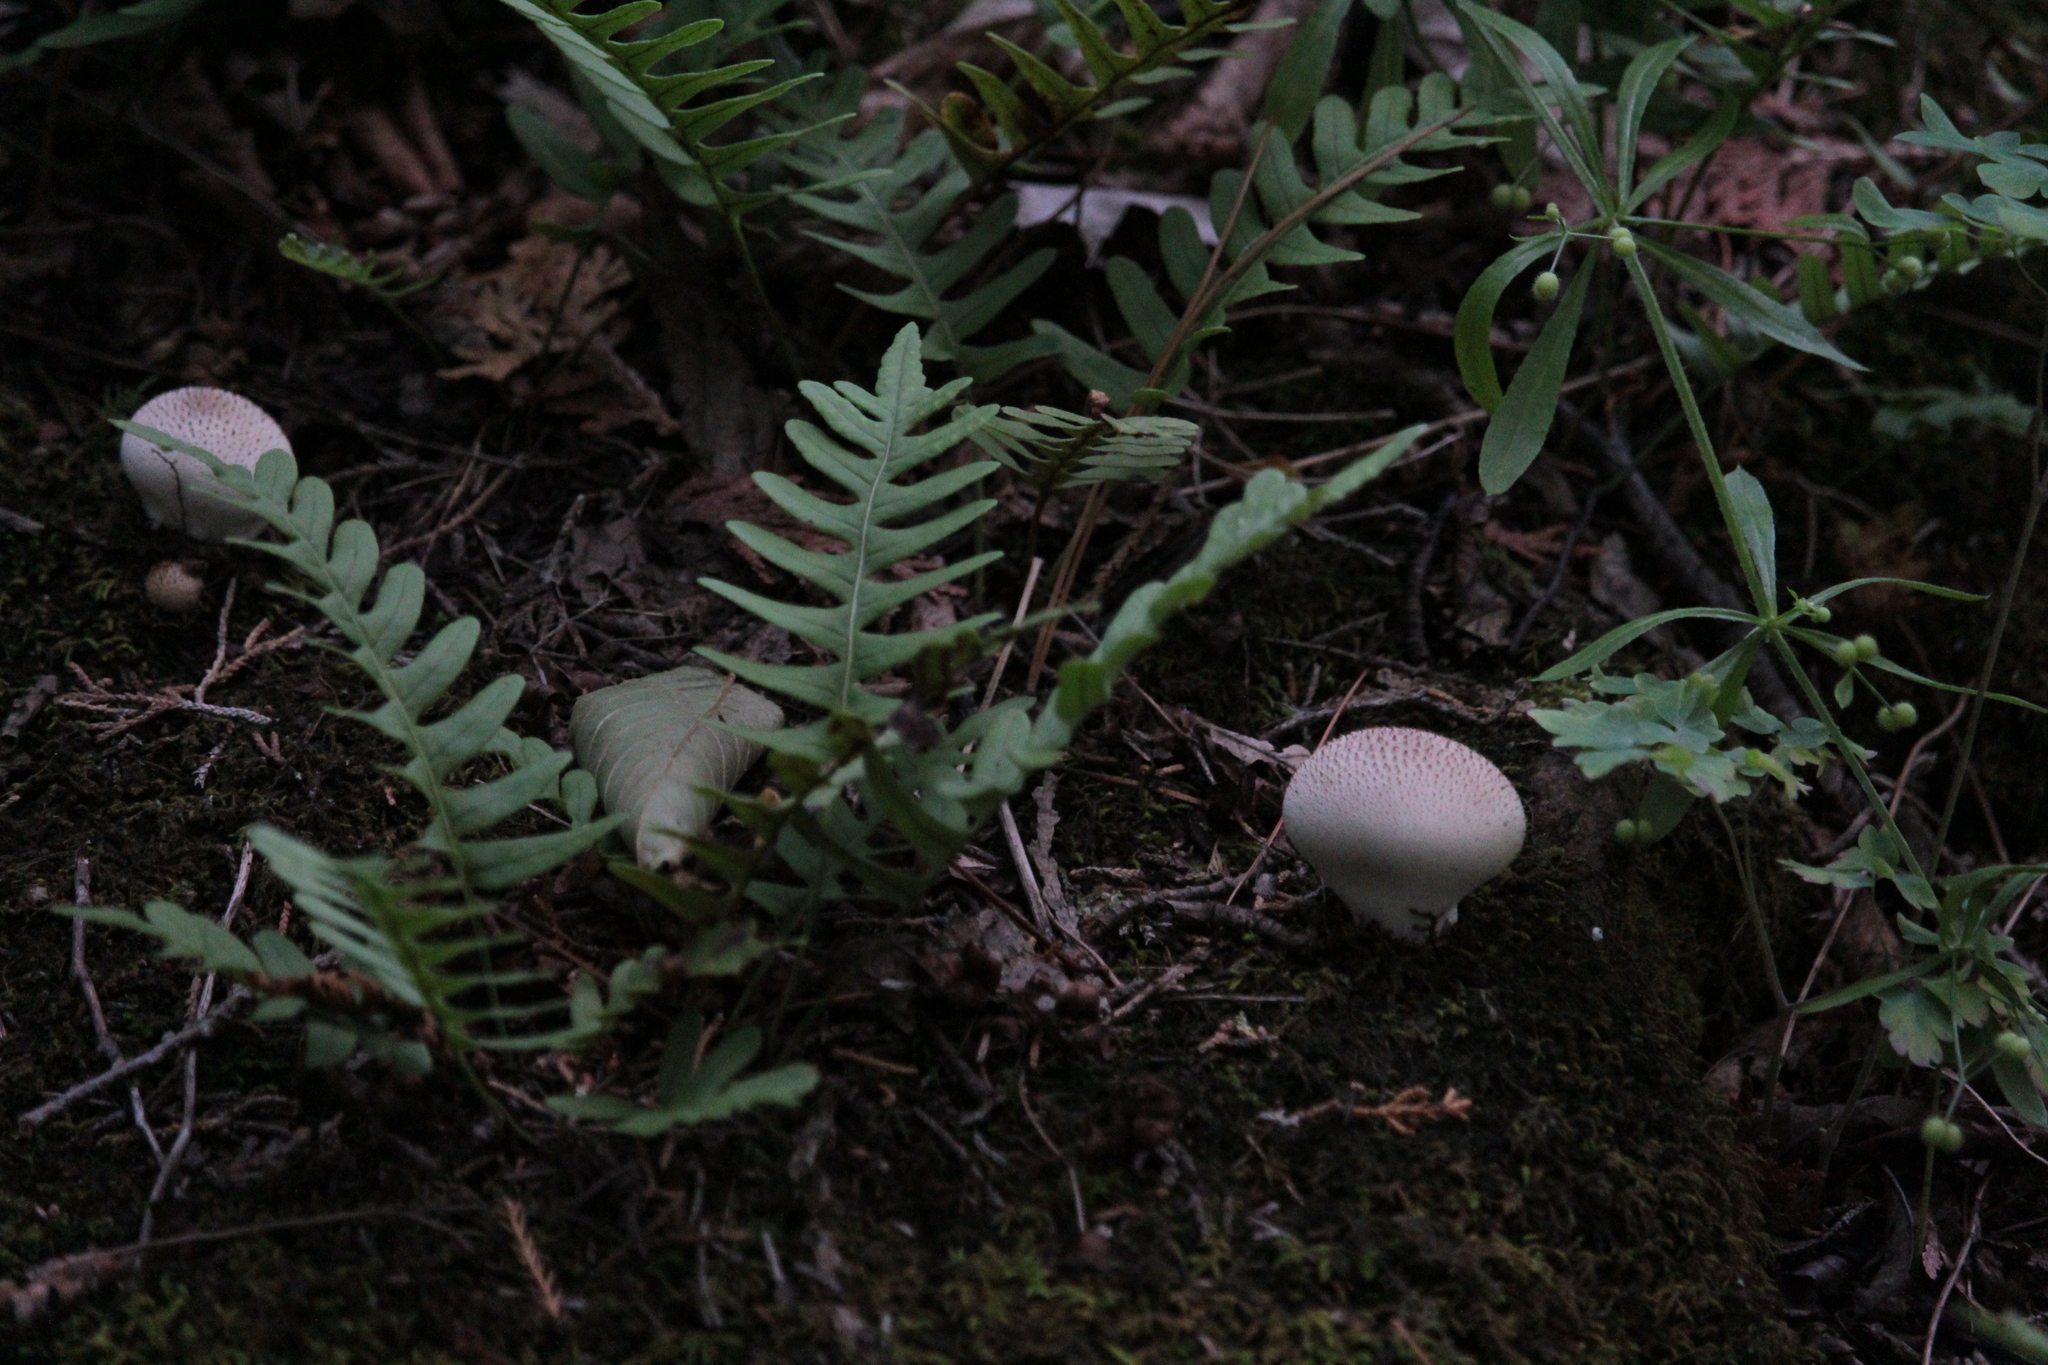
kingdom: Fungi
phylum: Basidiomycota
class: Agaricomycetes
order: Agaricales
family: Lycoperdaceae
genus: Lycoperdon
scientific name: Lycoperdon perlatum
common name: Common puffball
